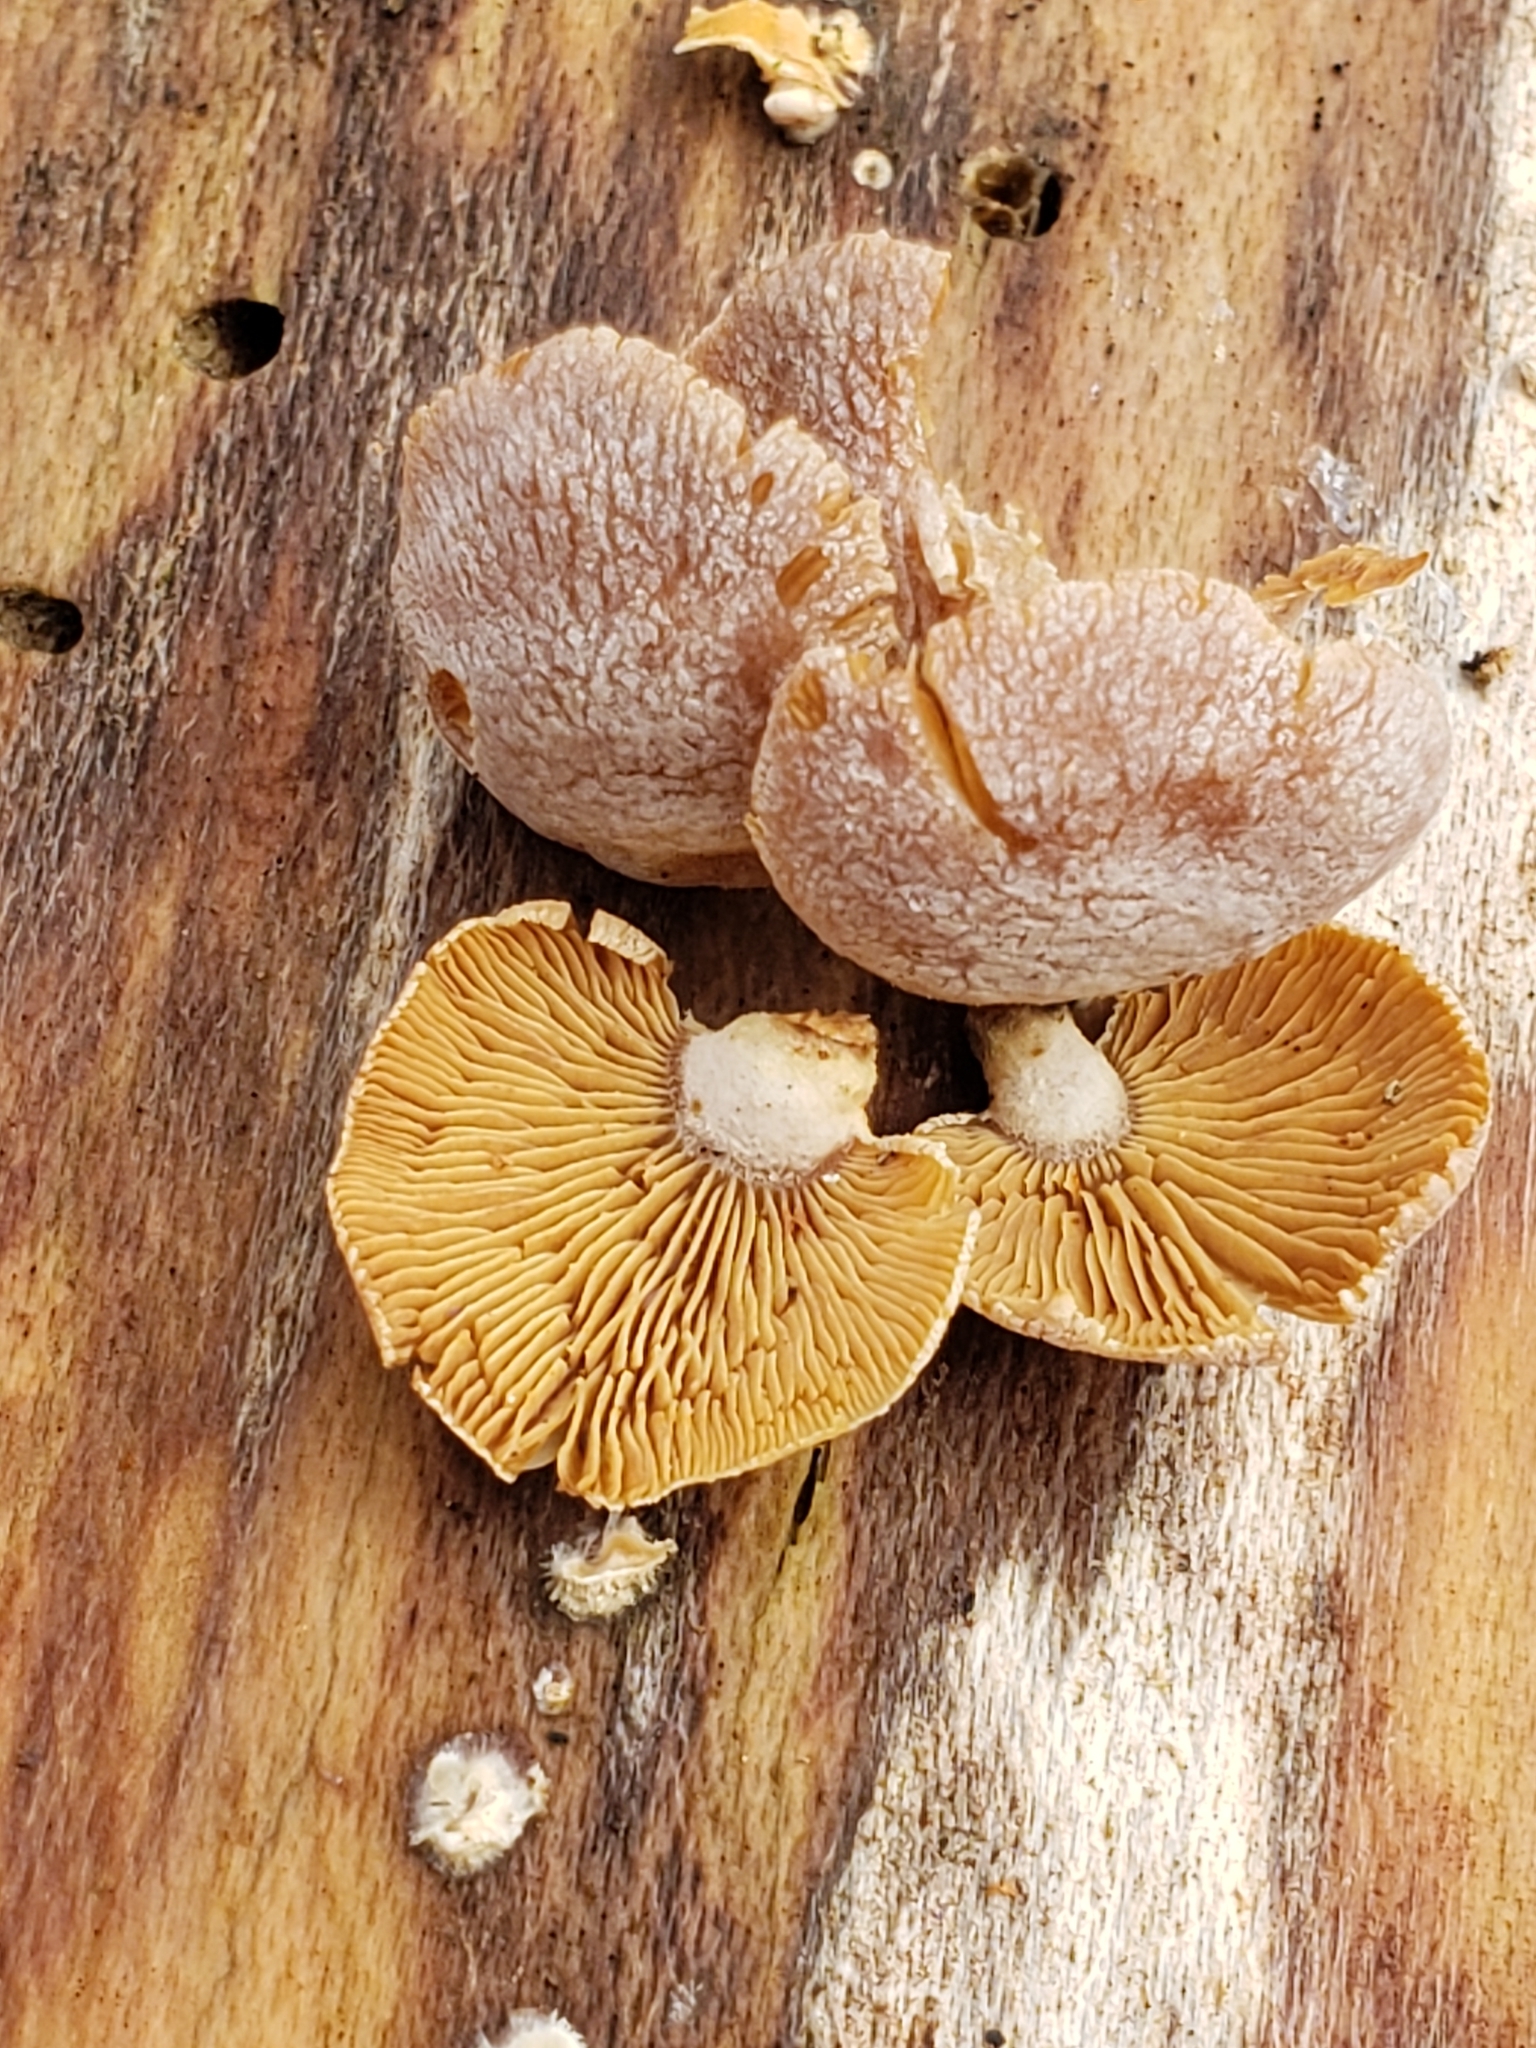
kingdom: Fungi
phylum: Basidiomycota
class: Agaricomycetes
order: Agaricales
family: Mycenaceae
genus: Panellus
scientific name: Panellus stipticus
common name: Bitter oysterling
